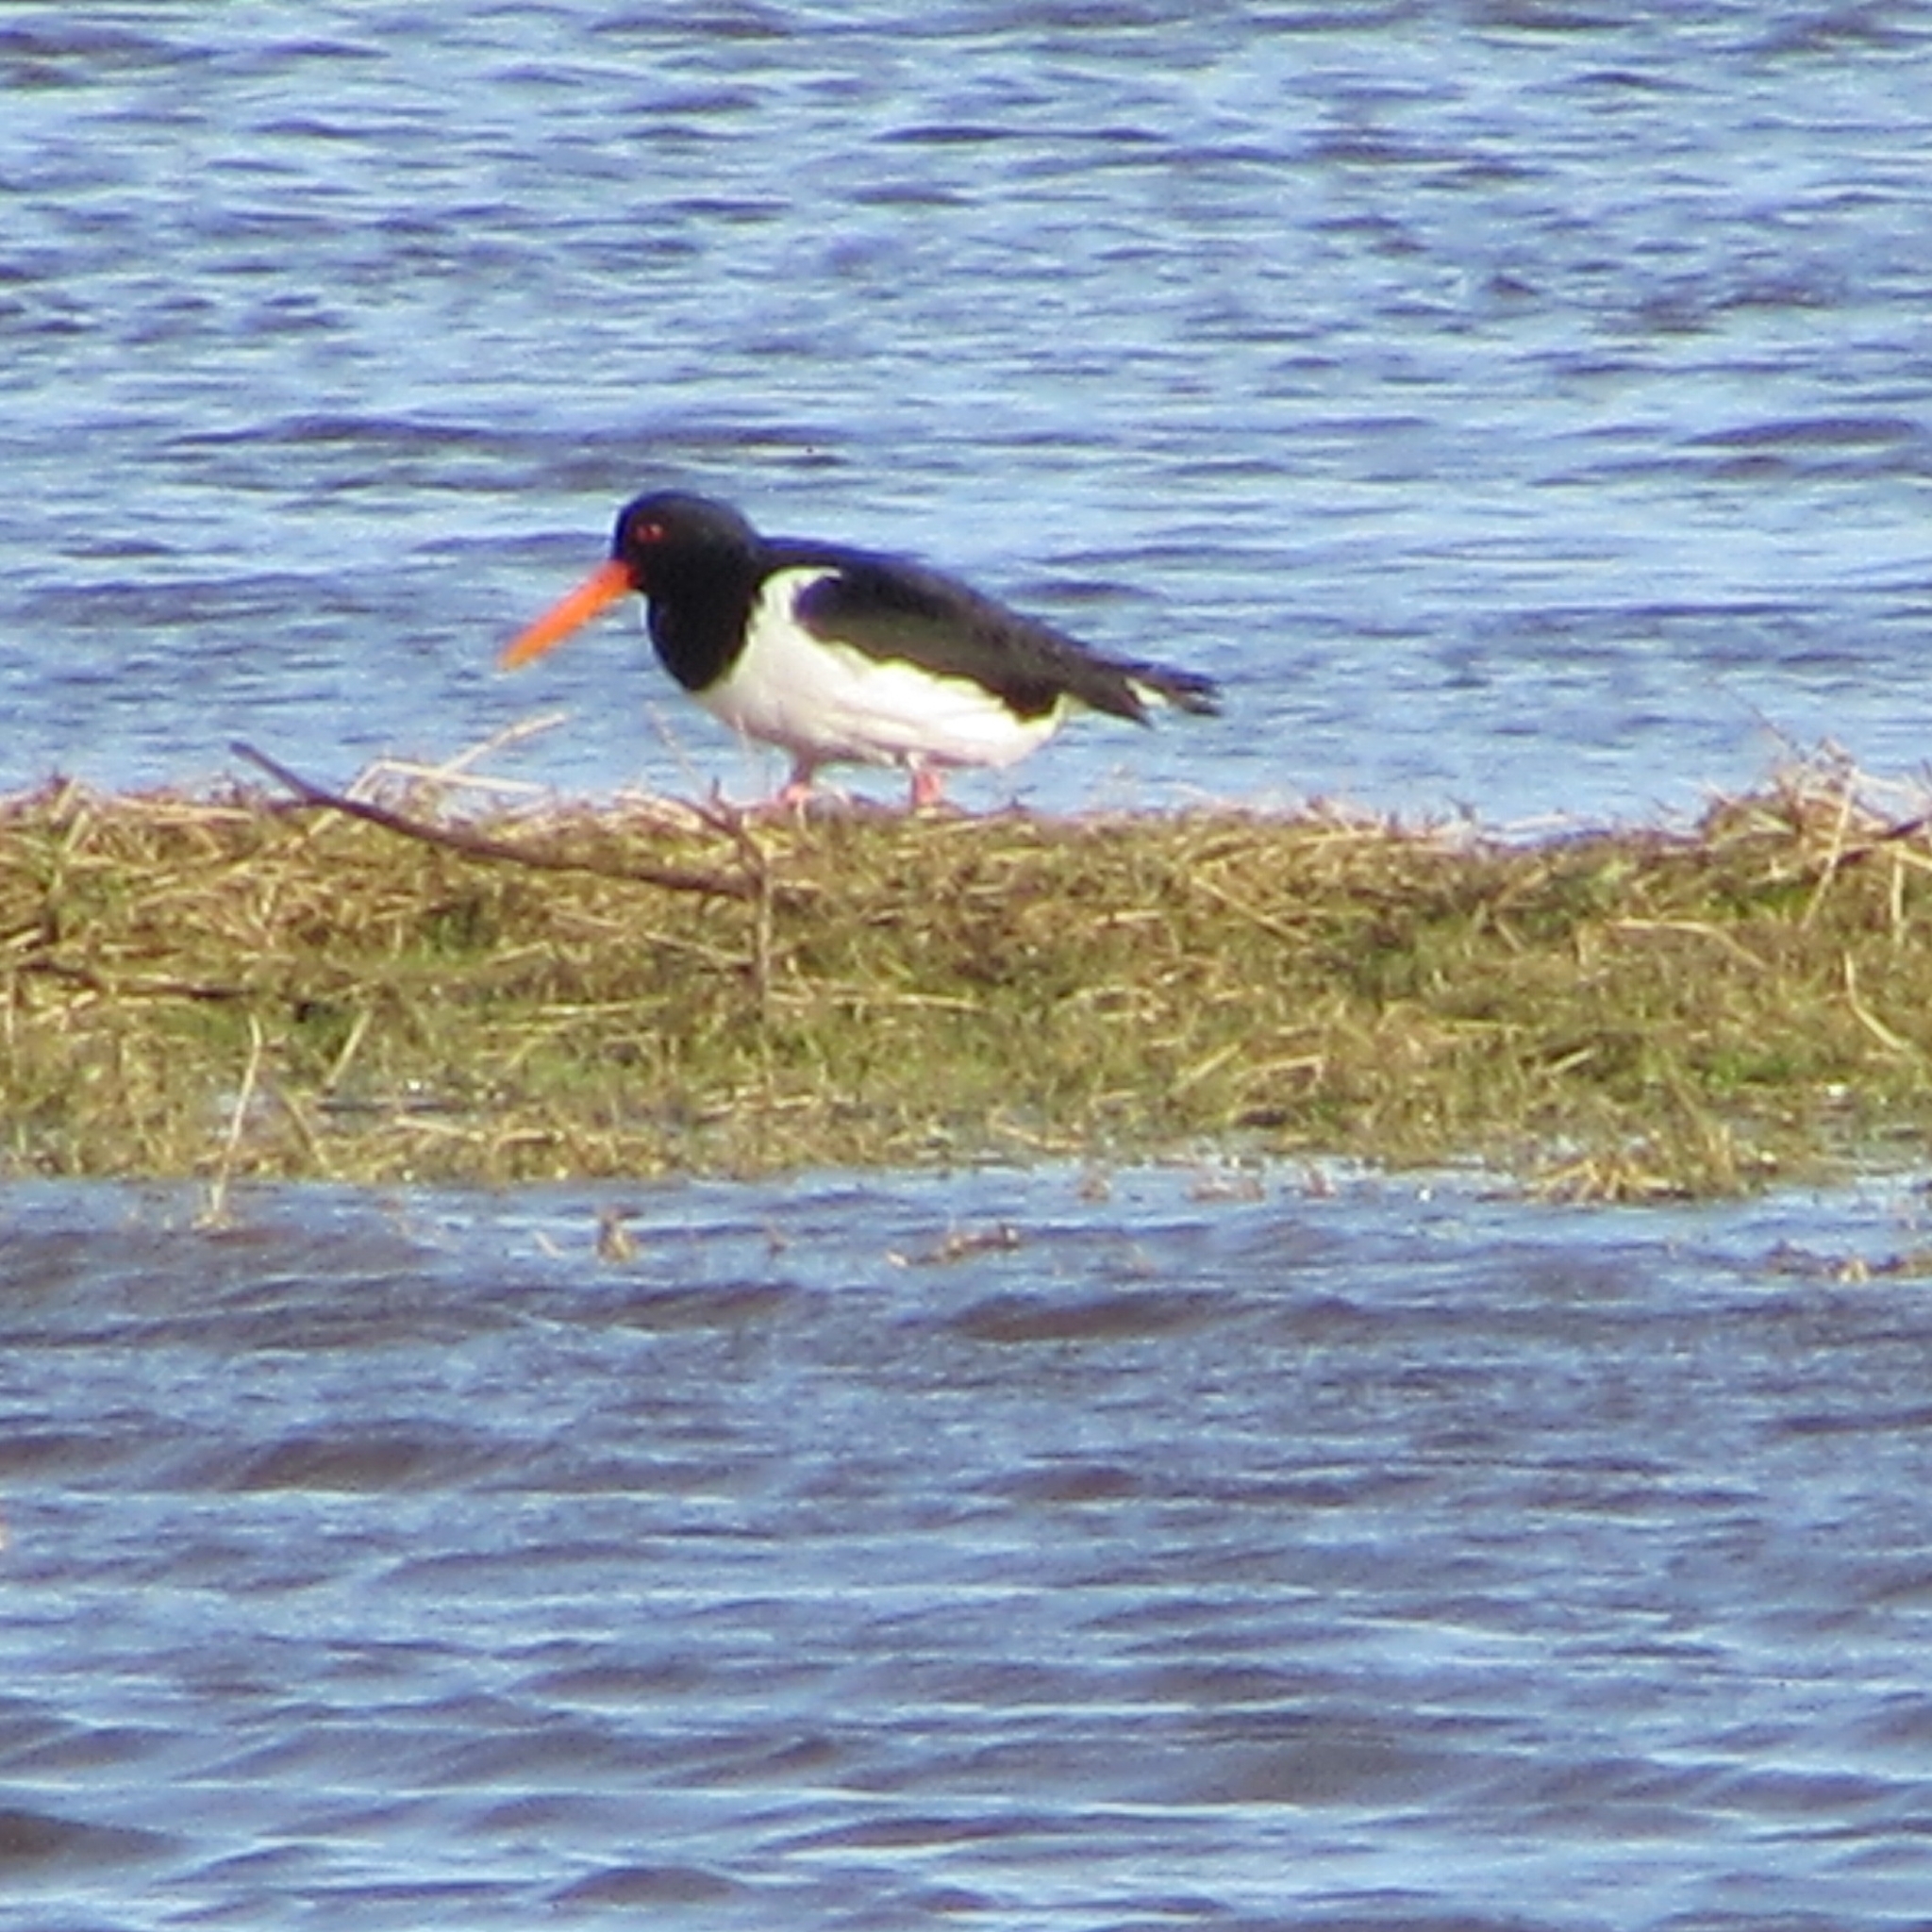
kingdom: Animalia
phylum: Chordata
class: Aves
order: Charadriiformes
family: Haematopodidae
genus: Haematopus
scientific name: Haematopus ostralegus
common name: Eurasian oystercatcher
